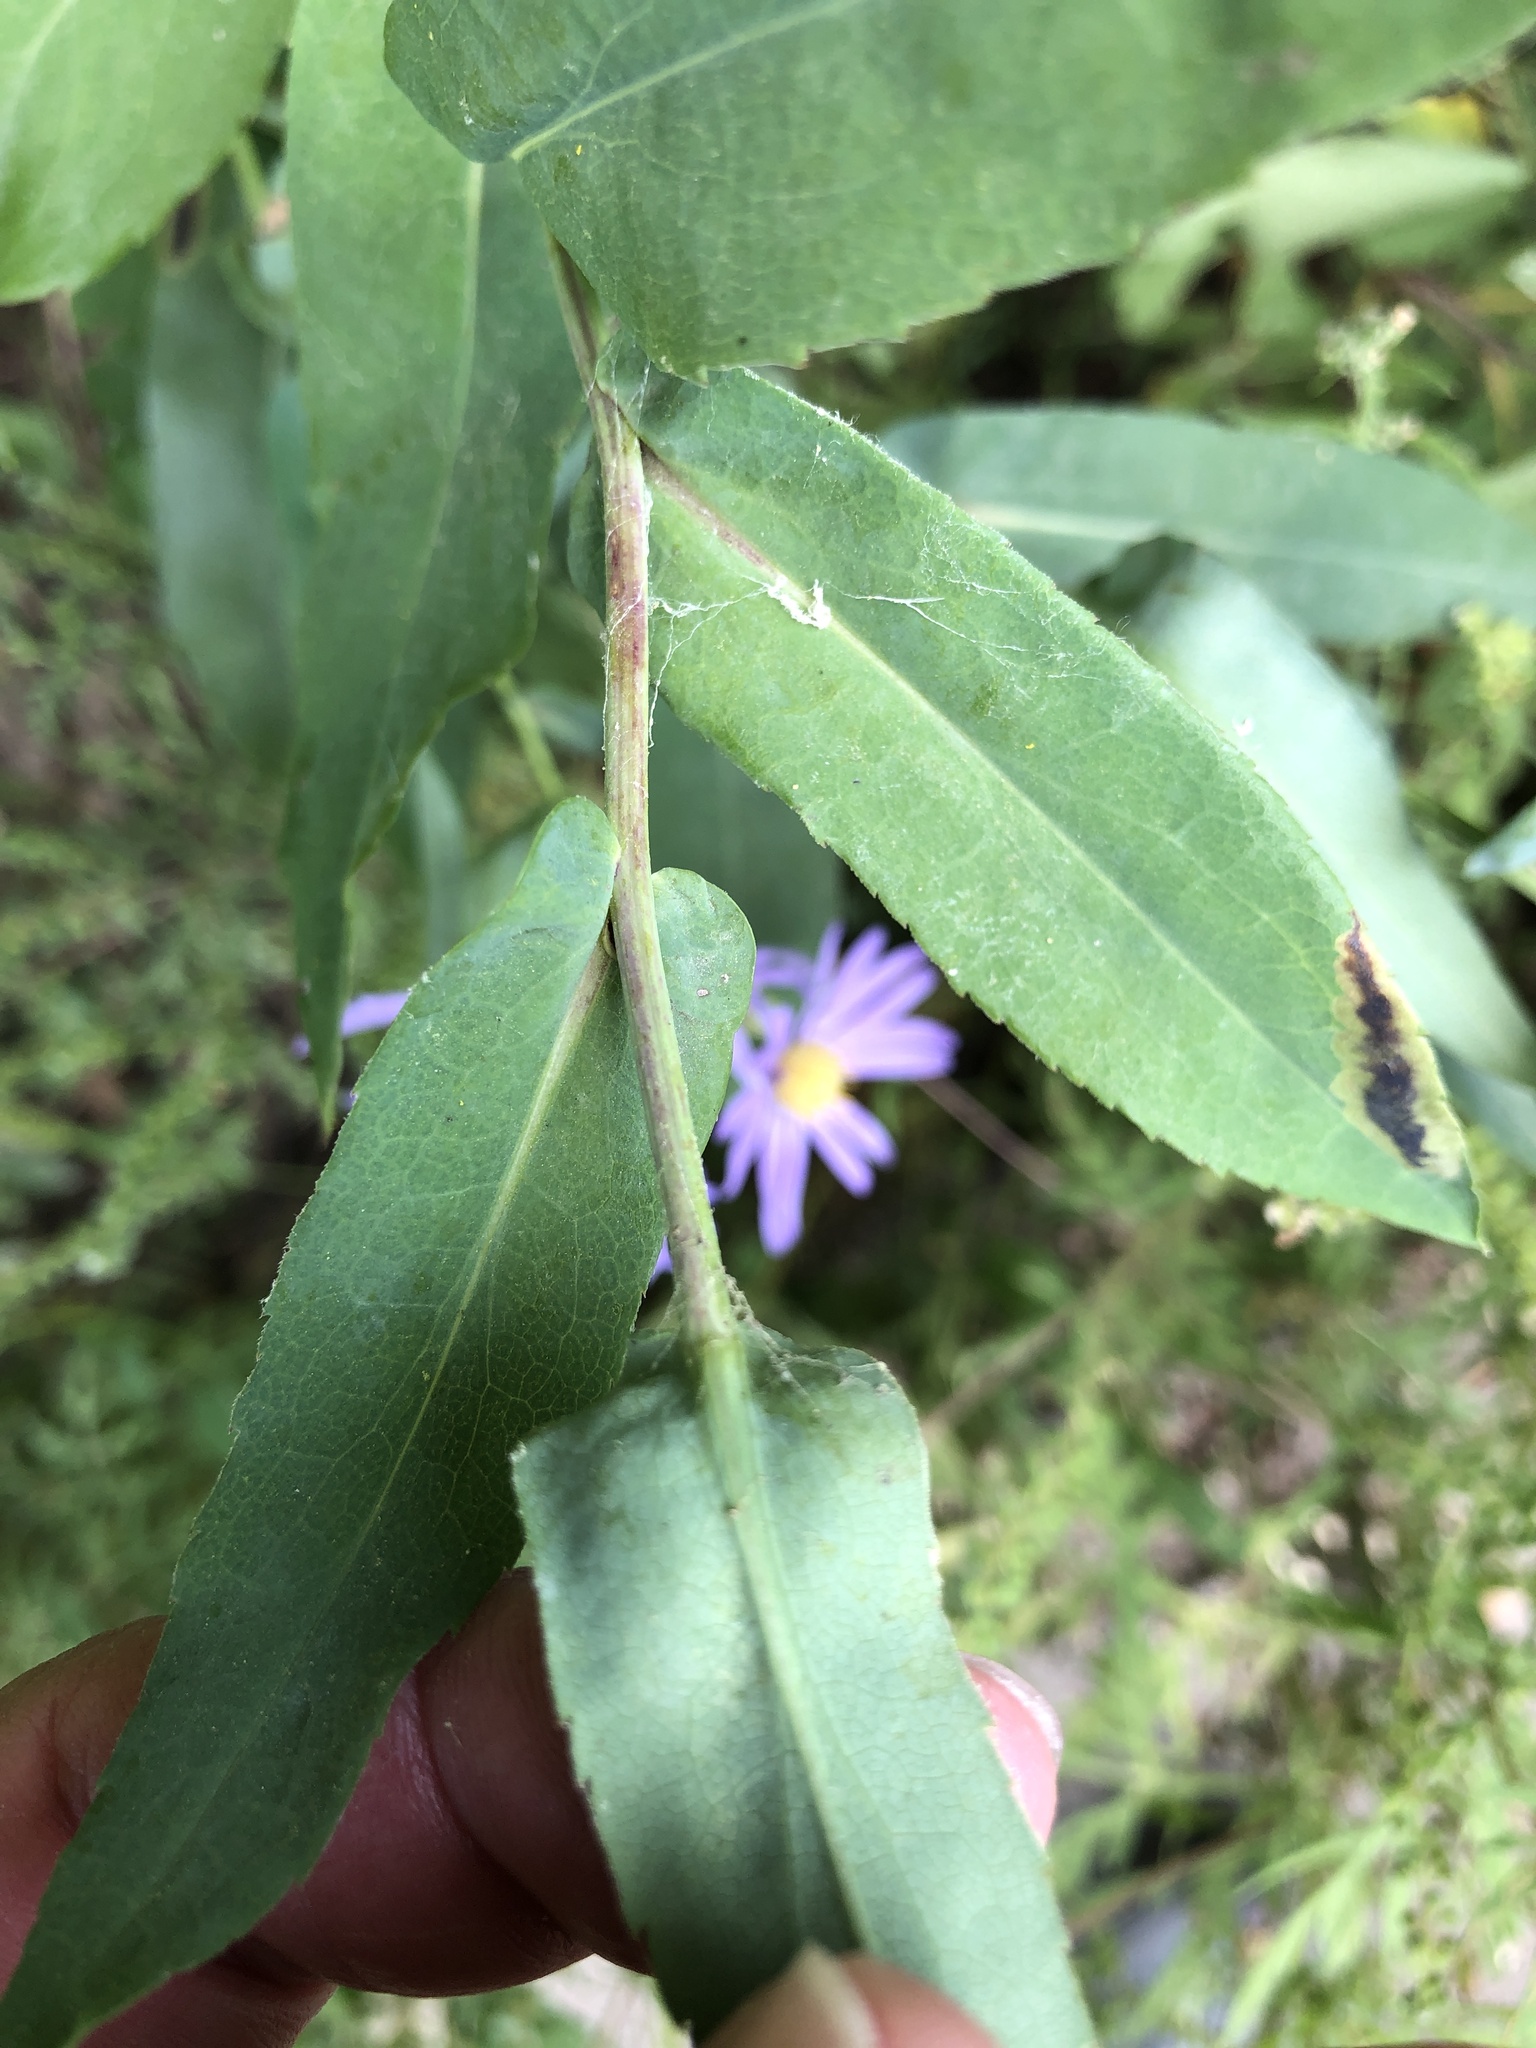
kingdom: Plantae
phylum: Tracheophyta
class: Magnoliopsida
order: Asterales
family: Asteraceae
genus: Symphyotrichum
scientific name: Symphyotrichum laeve
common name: Glaucous aster
